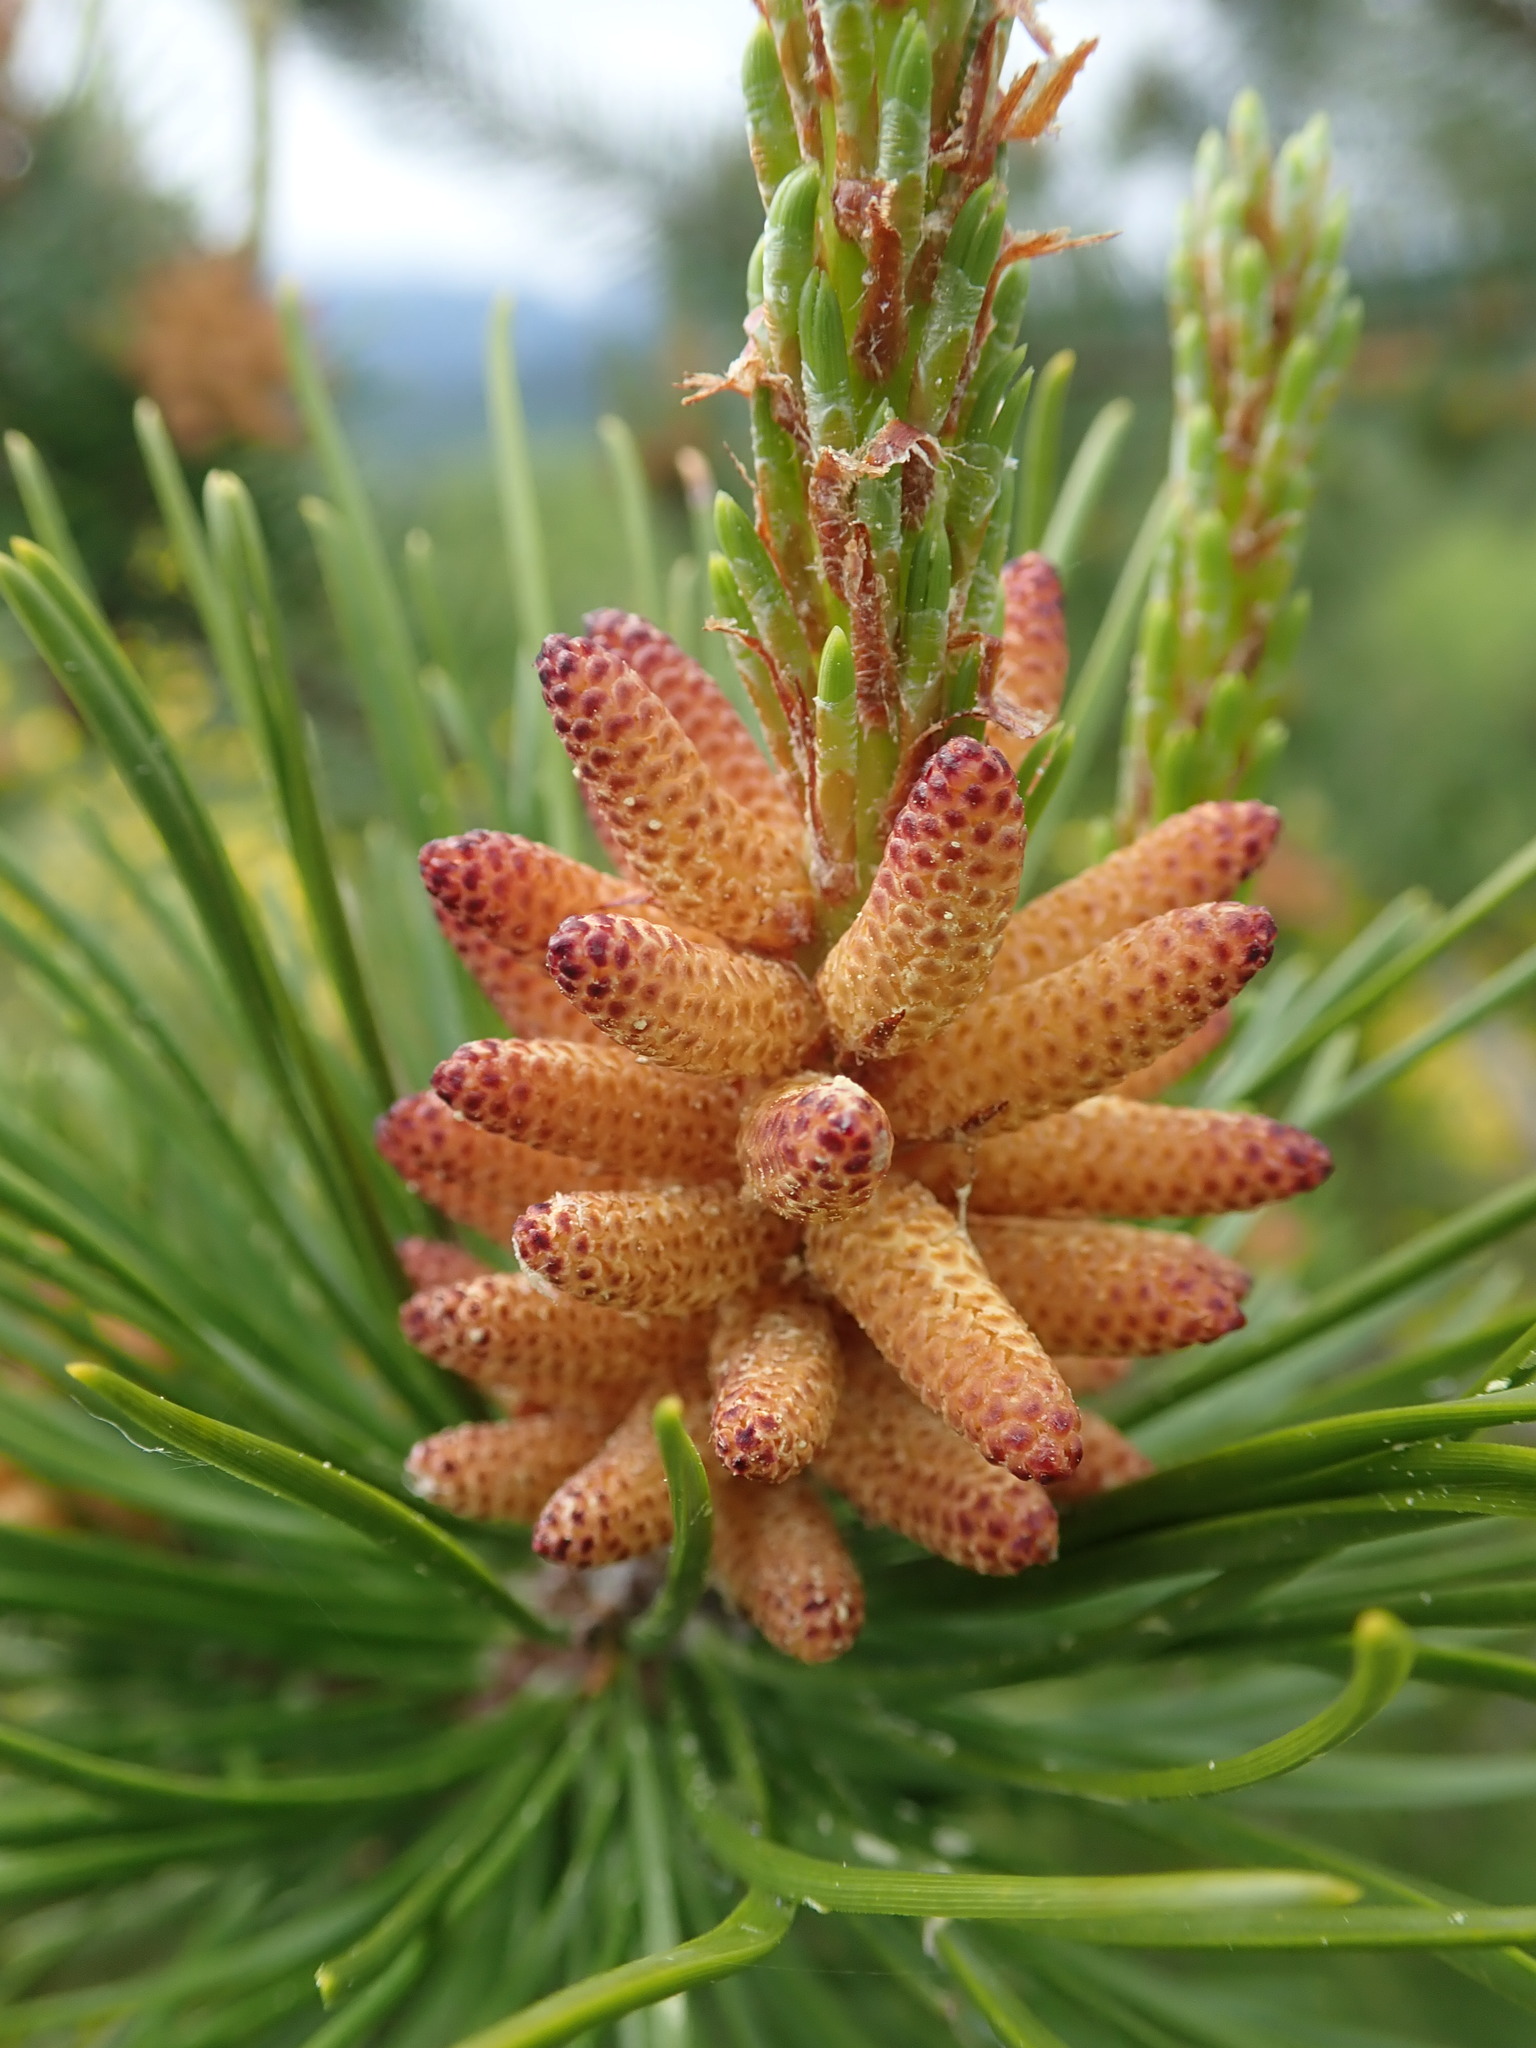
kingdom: Plantae
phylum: Tracheophyta
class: Pinopsida
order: Pinales
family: Pinaceae
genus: Pinus
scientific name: Pinus contorta
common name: Lodgepole pine
